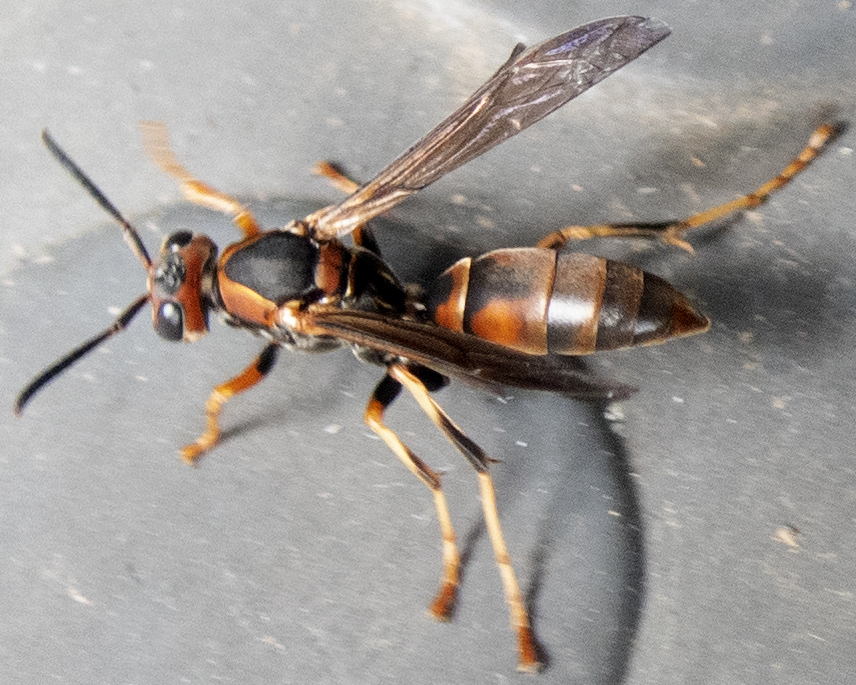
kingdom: Animalia
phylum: Arthropoda
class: Insecta
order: Hymenoptera
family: Eumenidae
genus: Polistes
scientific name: Polistes fuscatus
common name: Dark paper wasp
